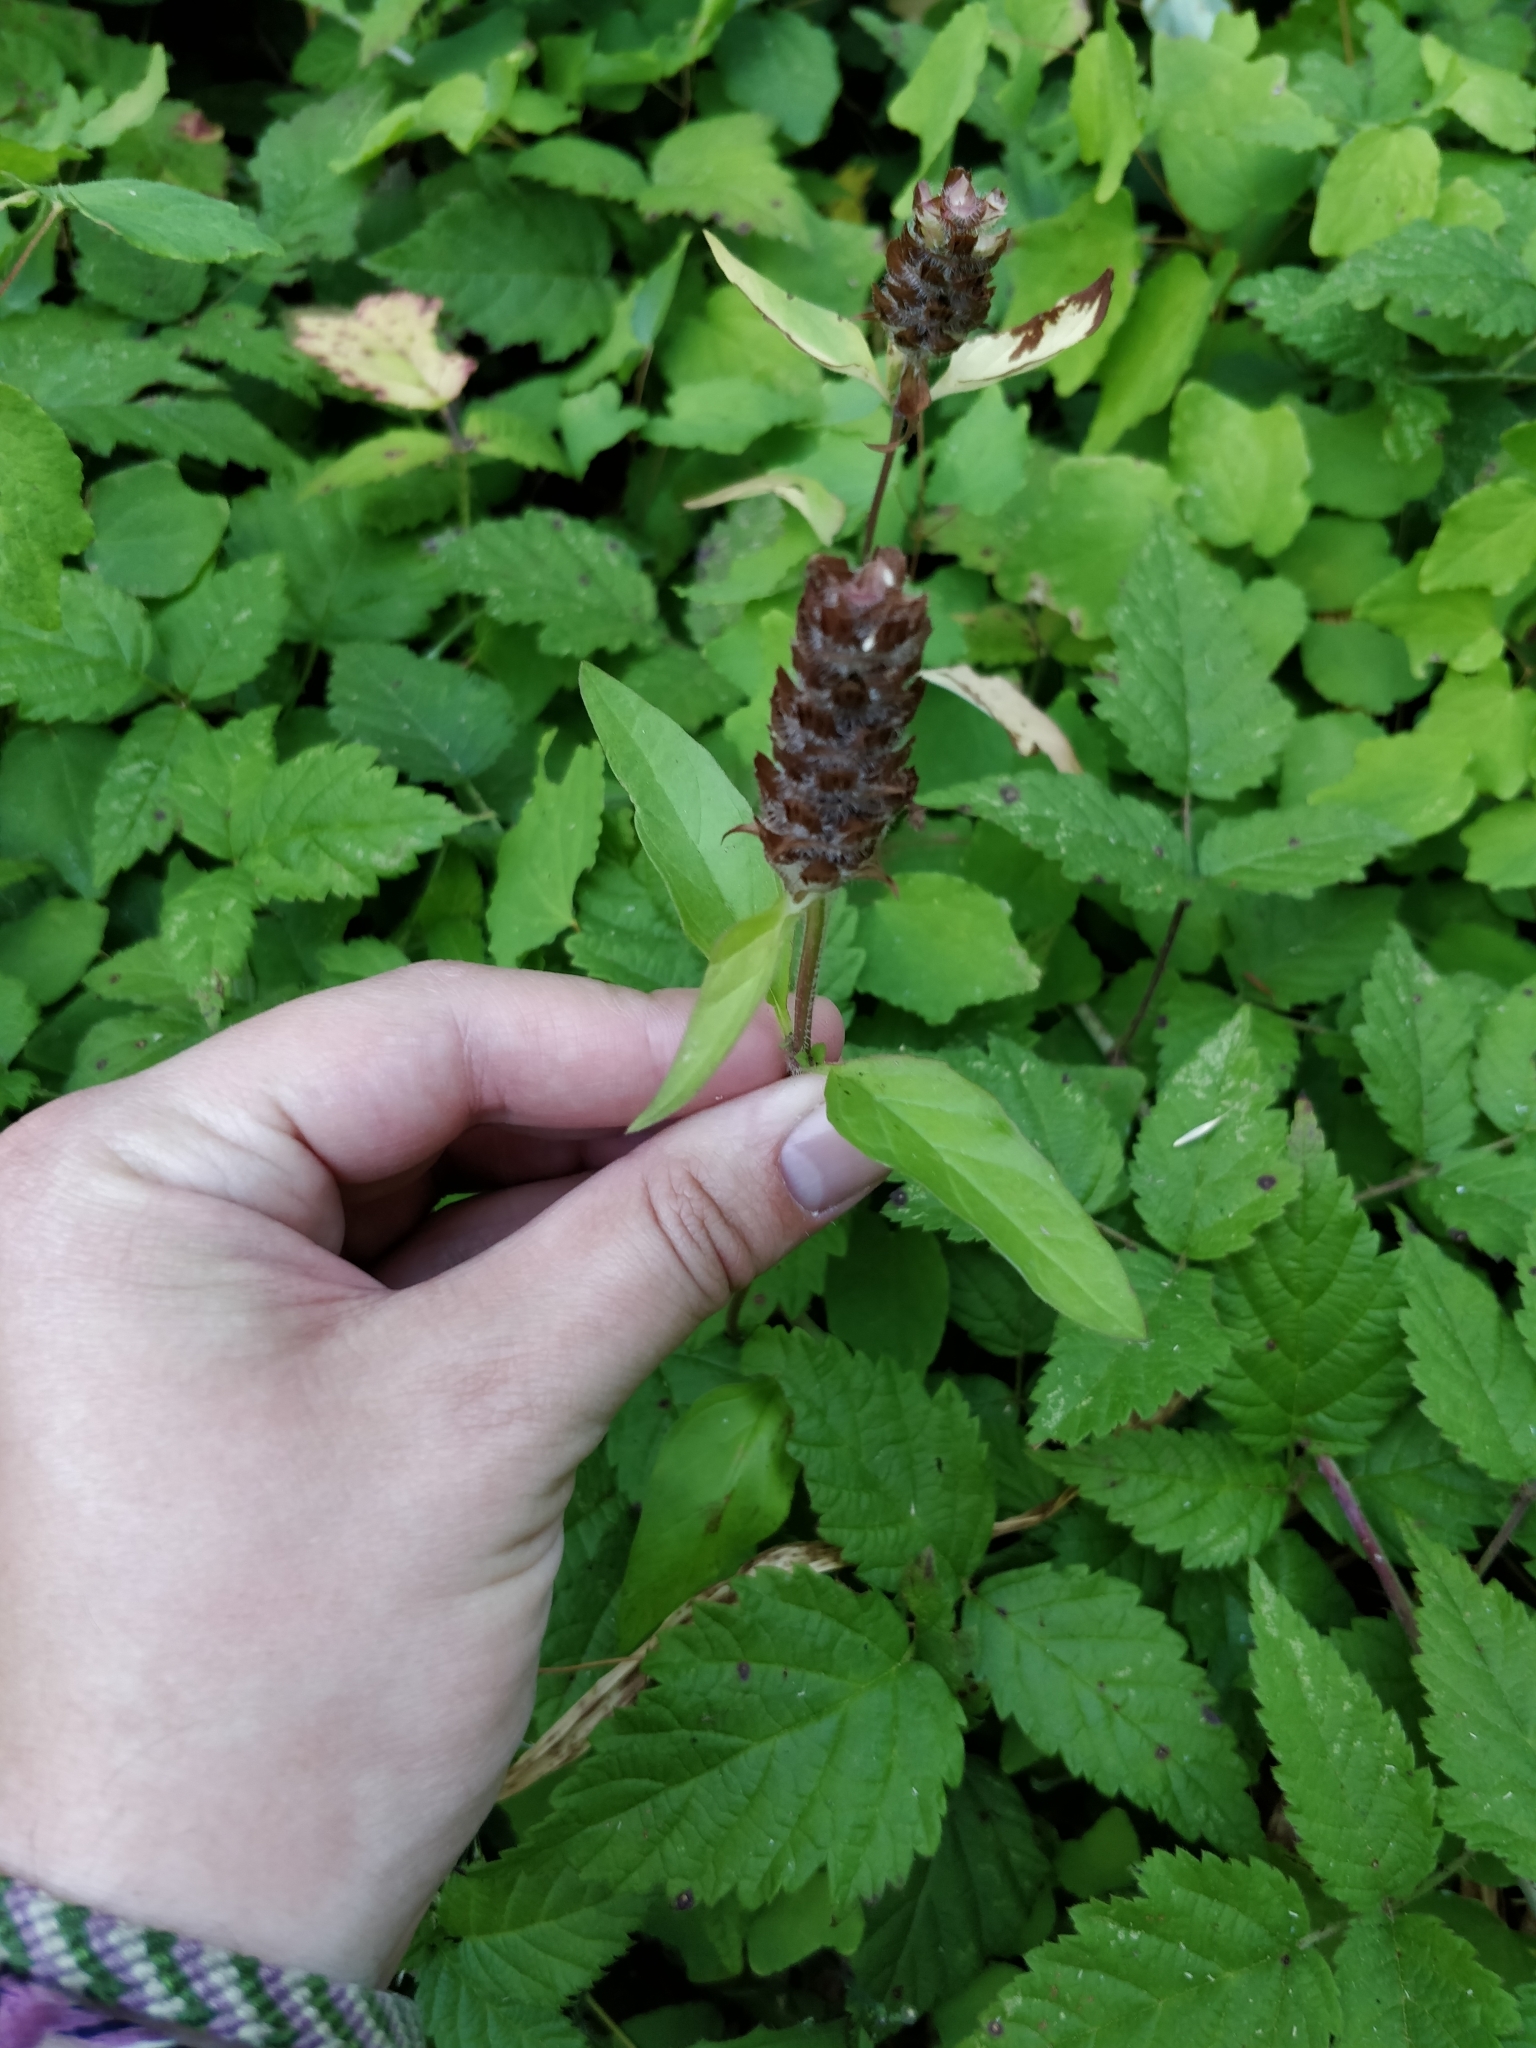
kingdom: Plantae
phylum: Tracheophyta
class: Magnoliopsida
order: Lamiales
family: Lamiaceae
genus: Prunella
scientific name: Prunella vulgaris
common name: Heal-all
